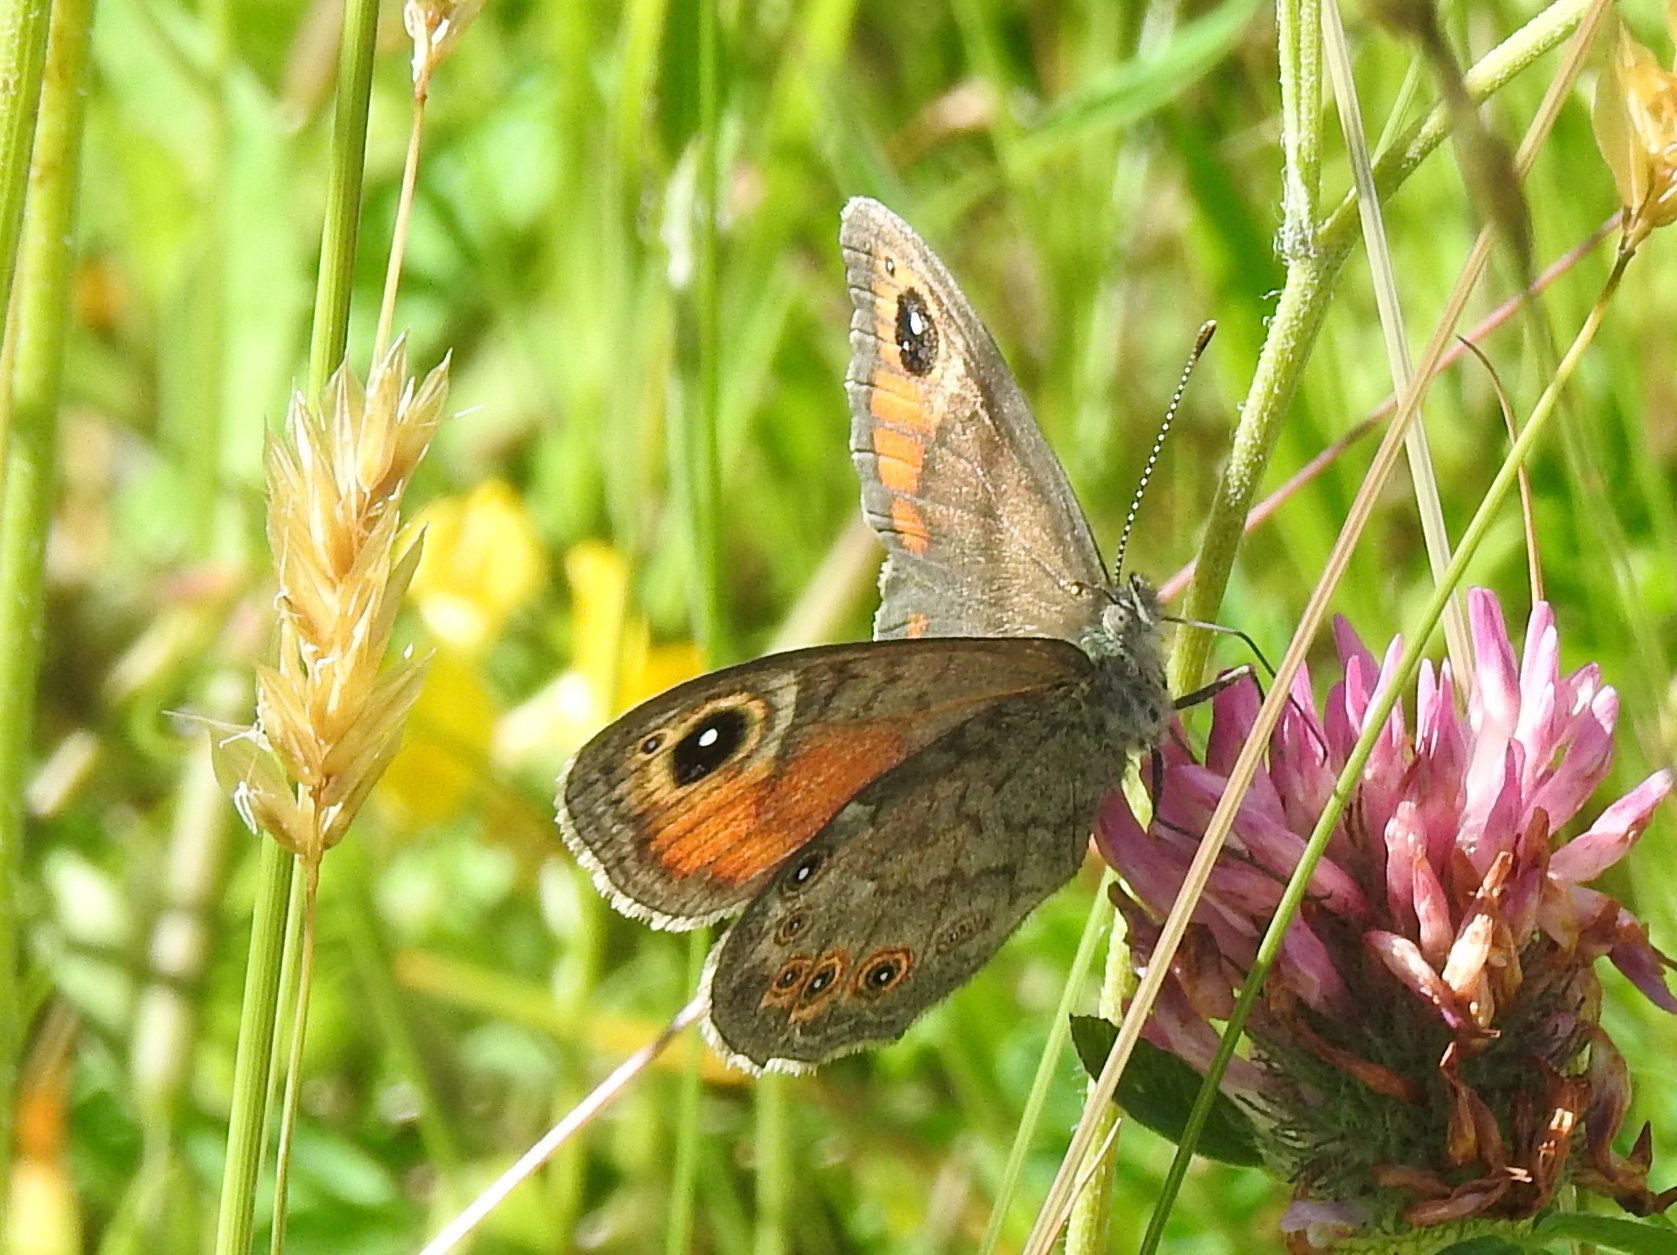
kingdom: Animalia
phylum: Arthropoda
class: Insecta
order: Lepidoptera
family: Nymphalidae
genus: Pararge
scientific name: Pararge Lasiommata maera
